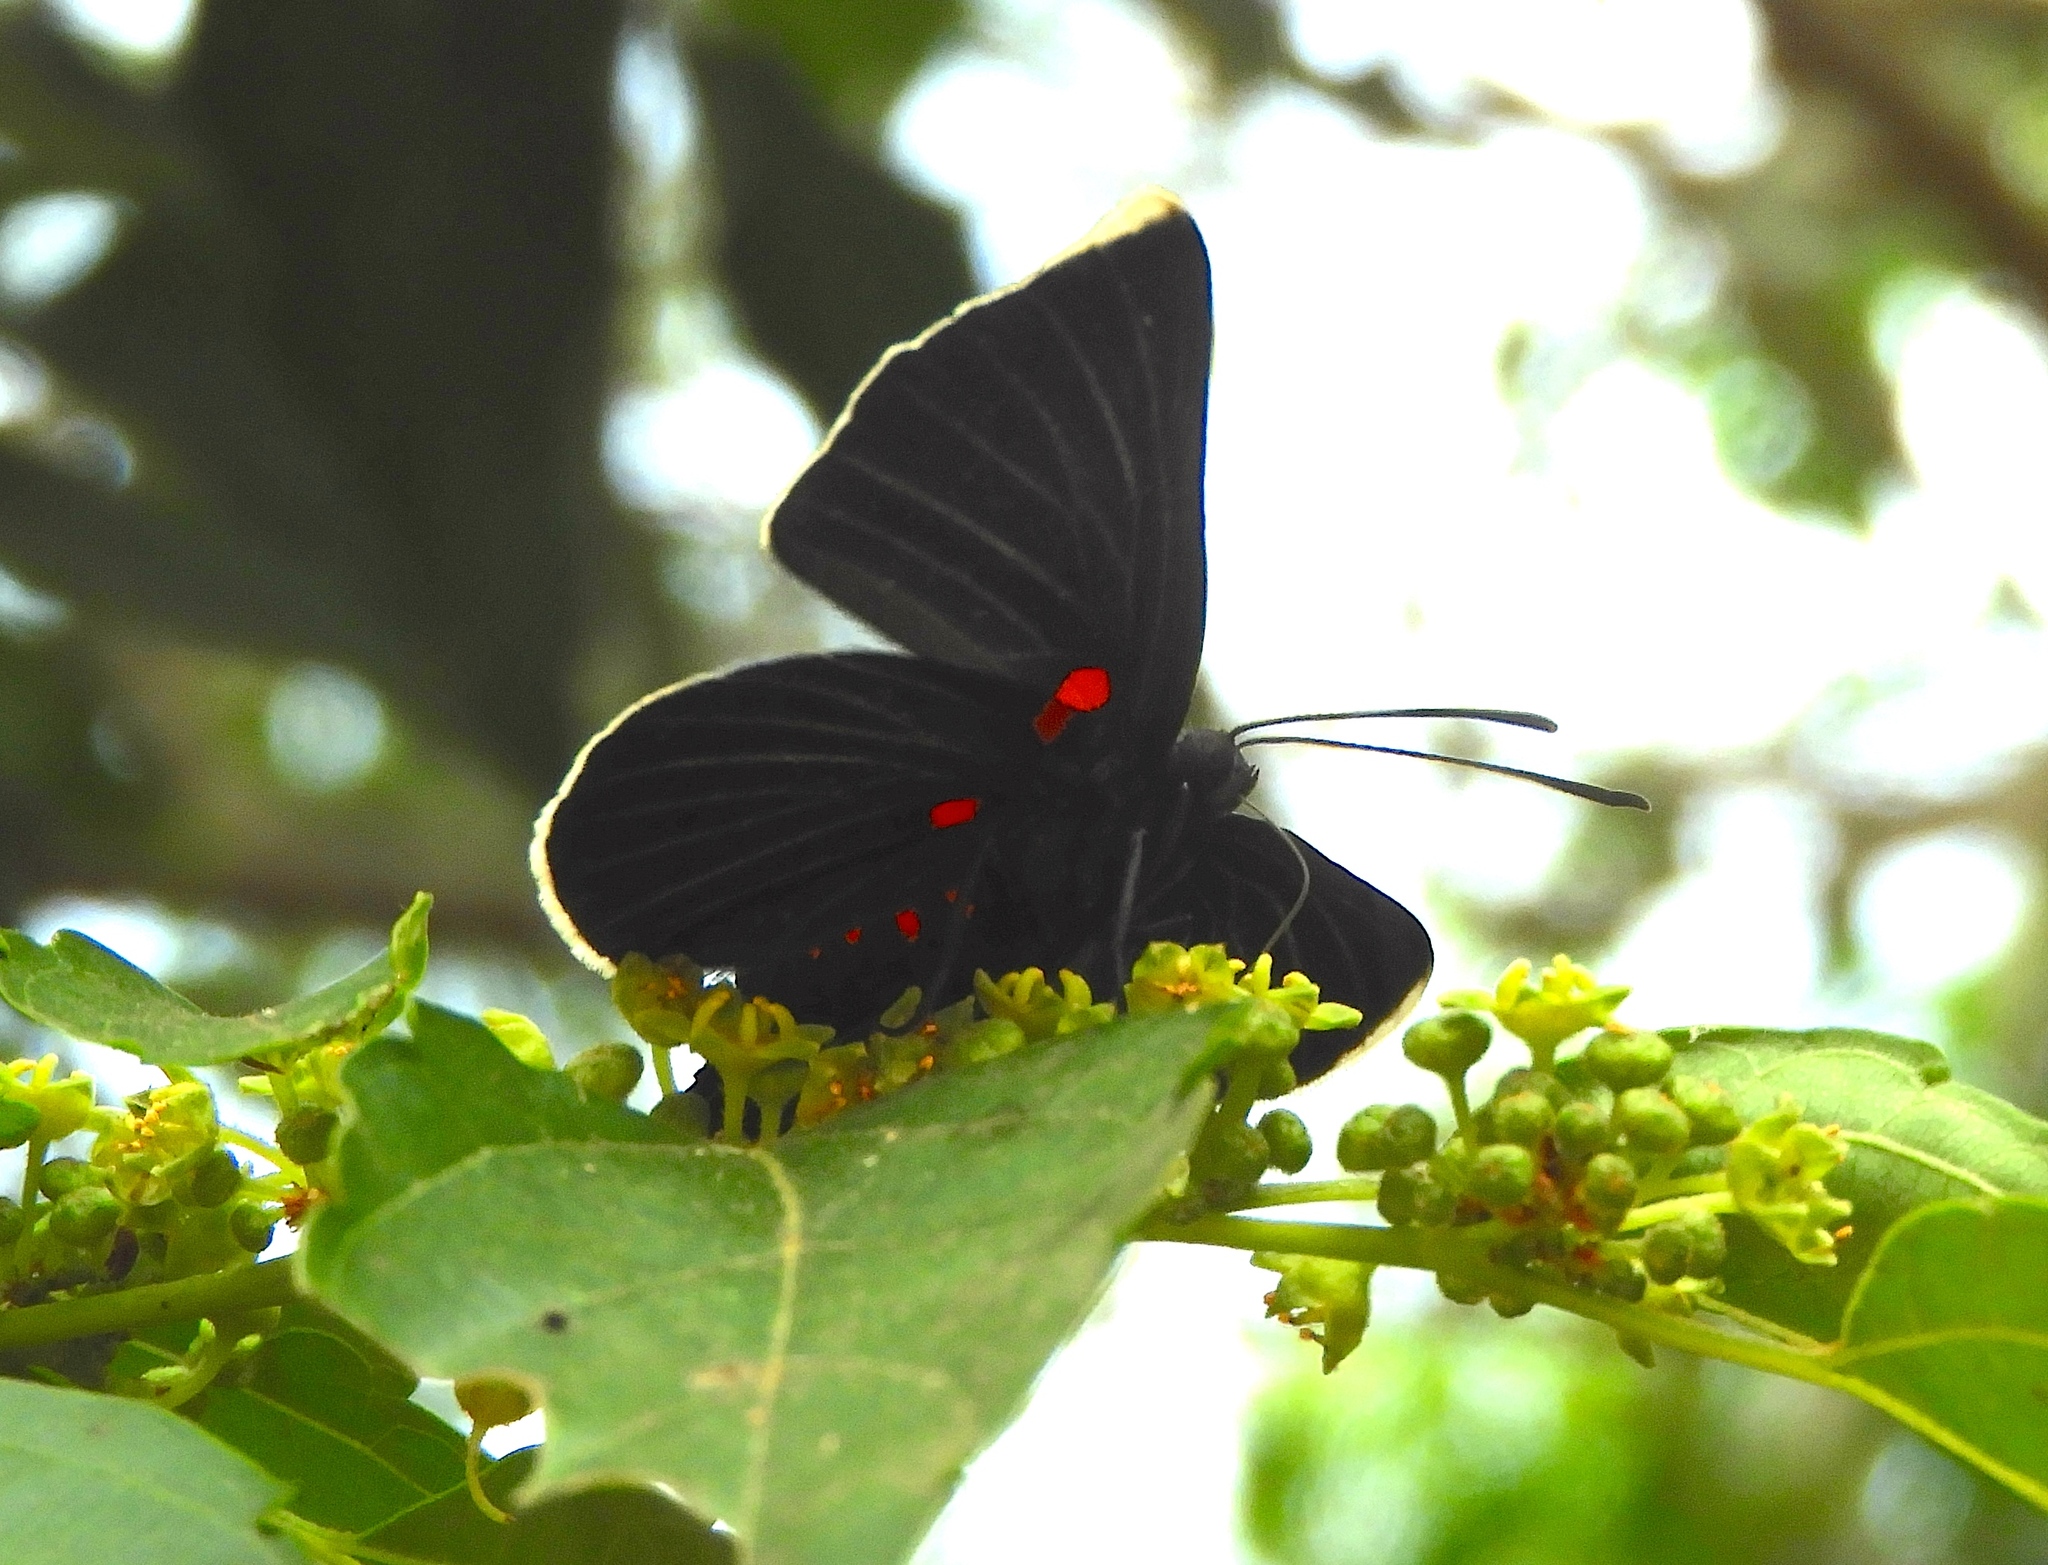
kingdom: Animalia
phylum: Arthropoda
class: Insecta
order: Lepidoptera
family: Lycaenidae
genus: Melanis
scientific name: Melanis
